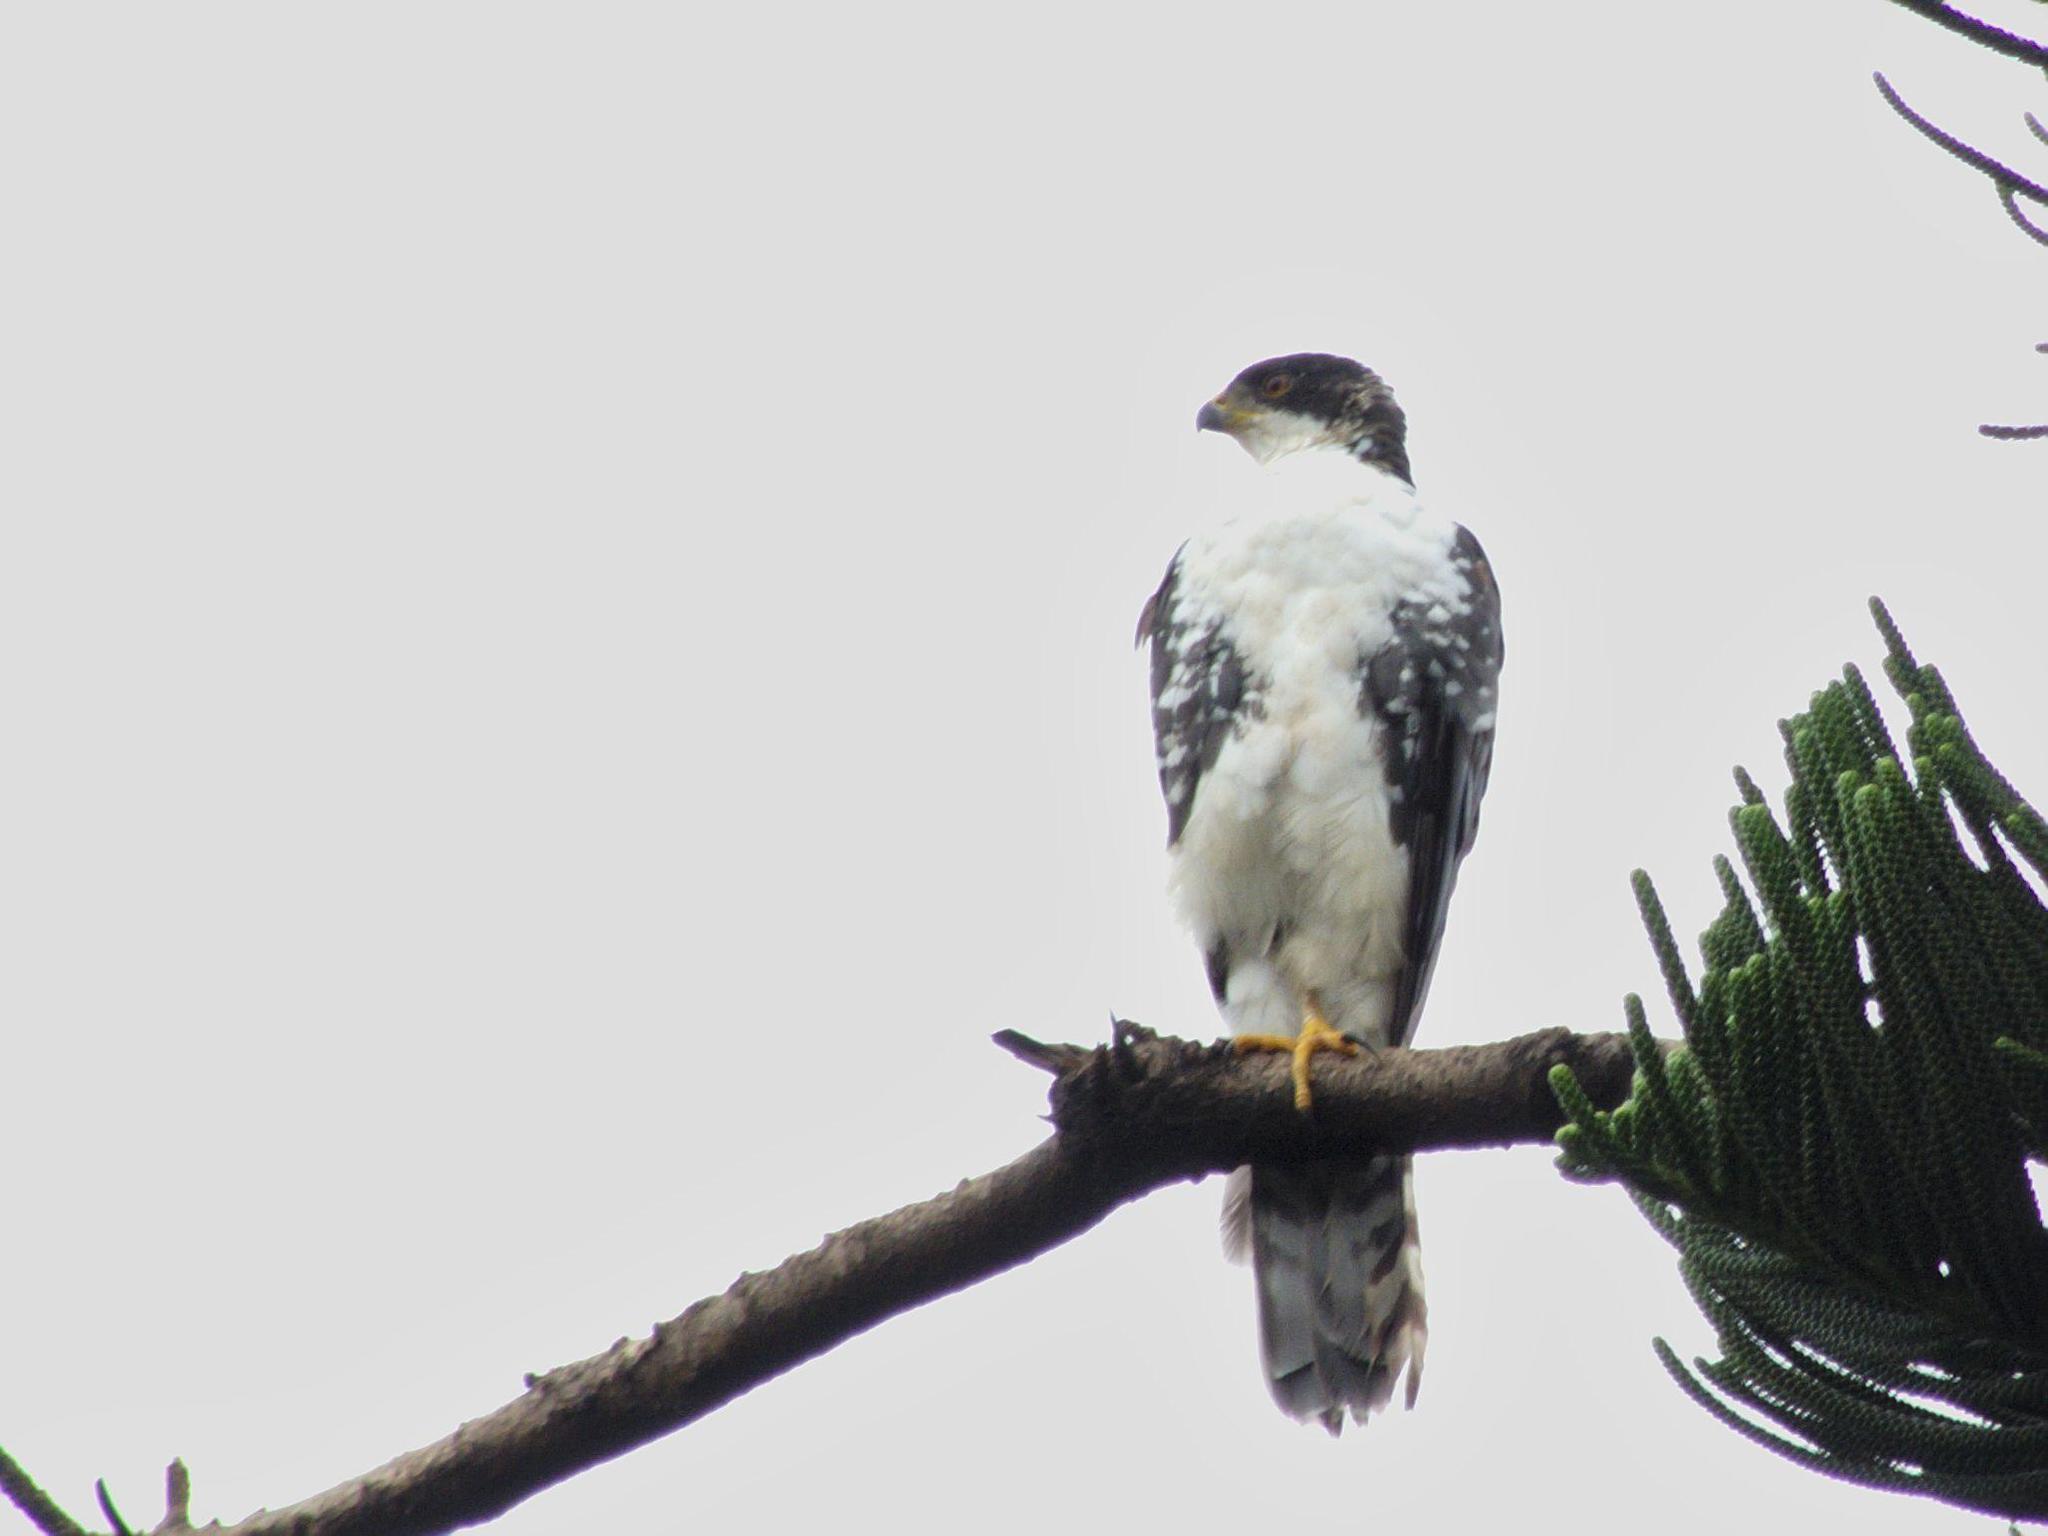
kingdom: Animalia
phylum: Chordata
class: Aves
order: Accipitriformes
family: Accipitridae
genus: Accipiter
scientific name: Accipiter melanoleucus
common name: Black sparrowhawk
